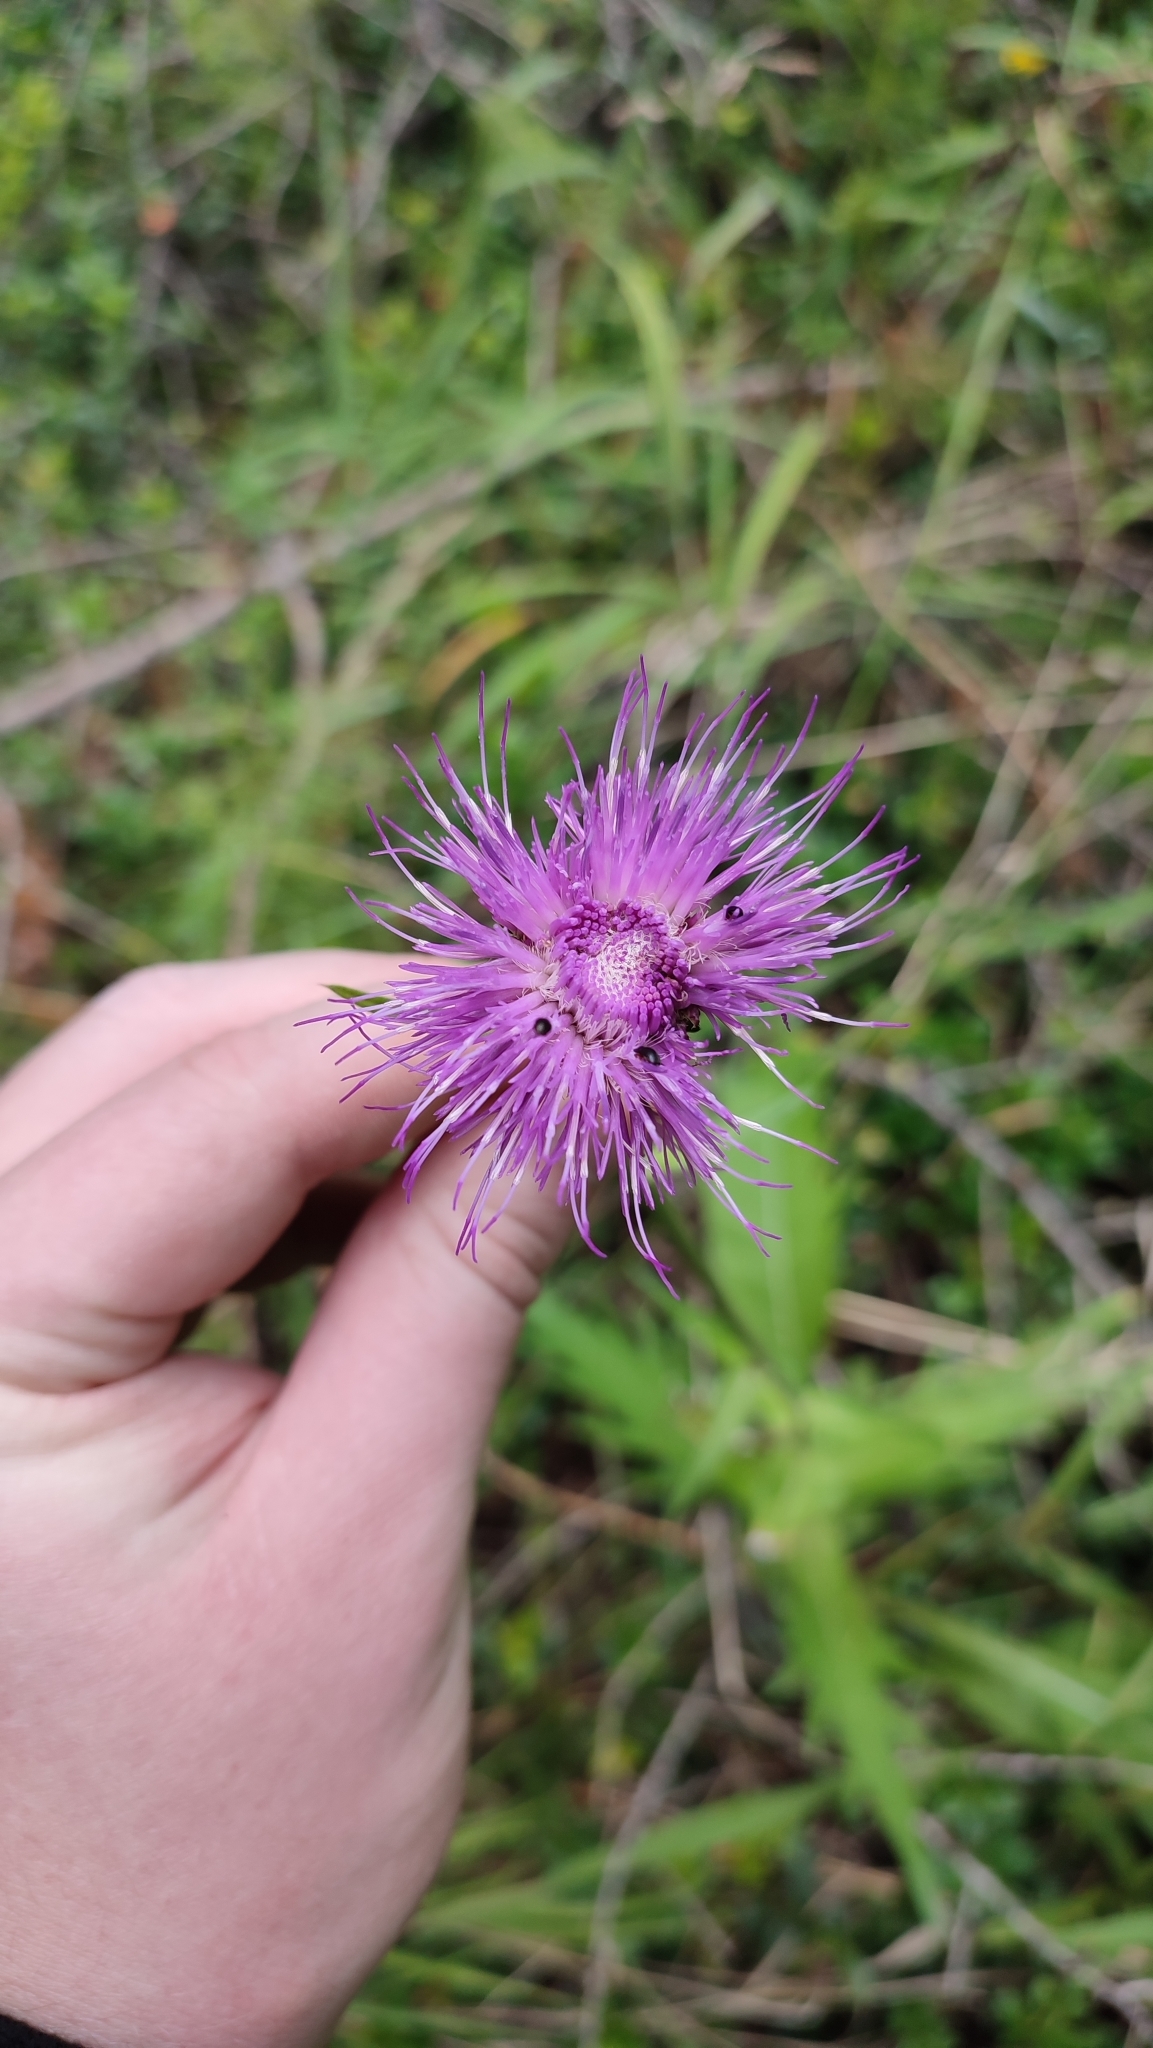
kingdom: Plantae
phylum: Tracheophyta
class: Magnoliopsida
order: Asterales
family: Asteraceae
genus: Cirsium
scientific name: Cirsium heterophyllum
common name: Melancholy thistle
